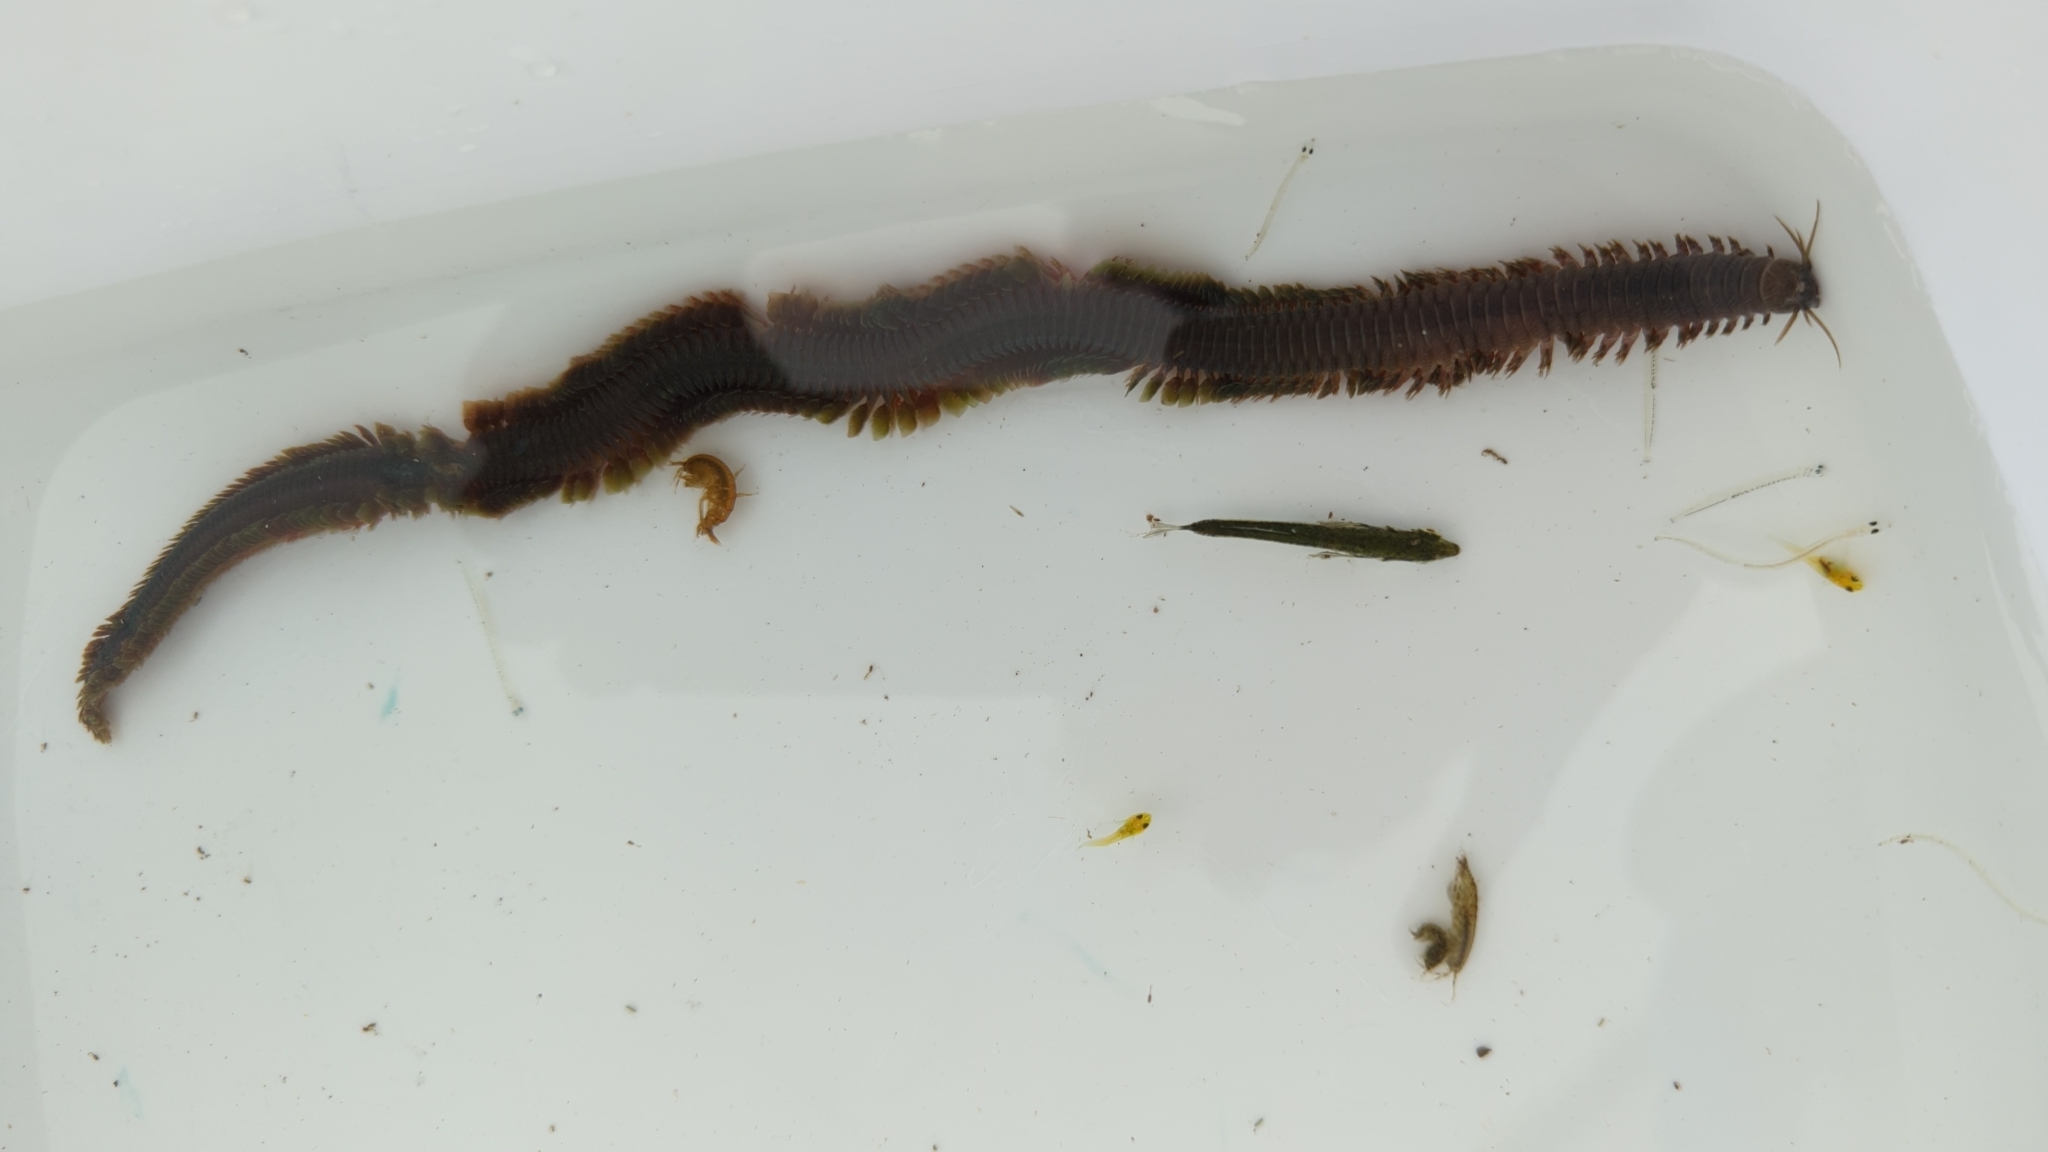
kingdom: Animalia
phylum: Annelida
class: Polychaeta
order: Phyllodocida
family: Nereididae
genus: Alitta
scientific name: Alitta williami
